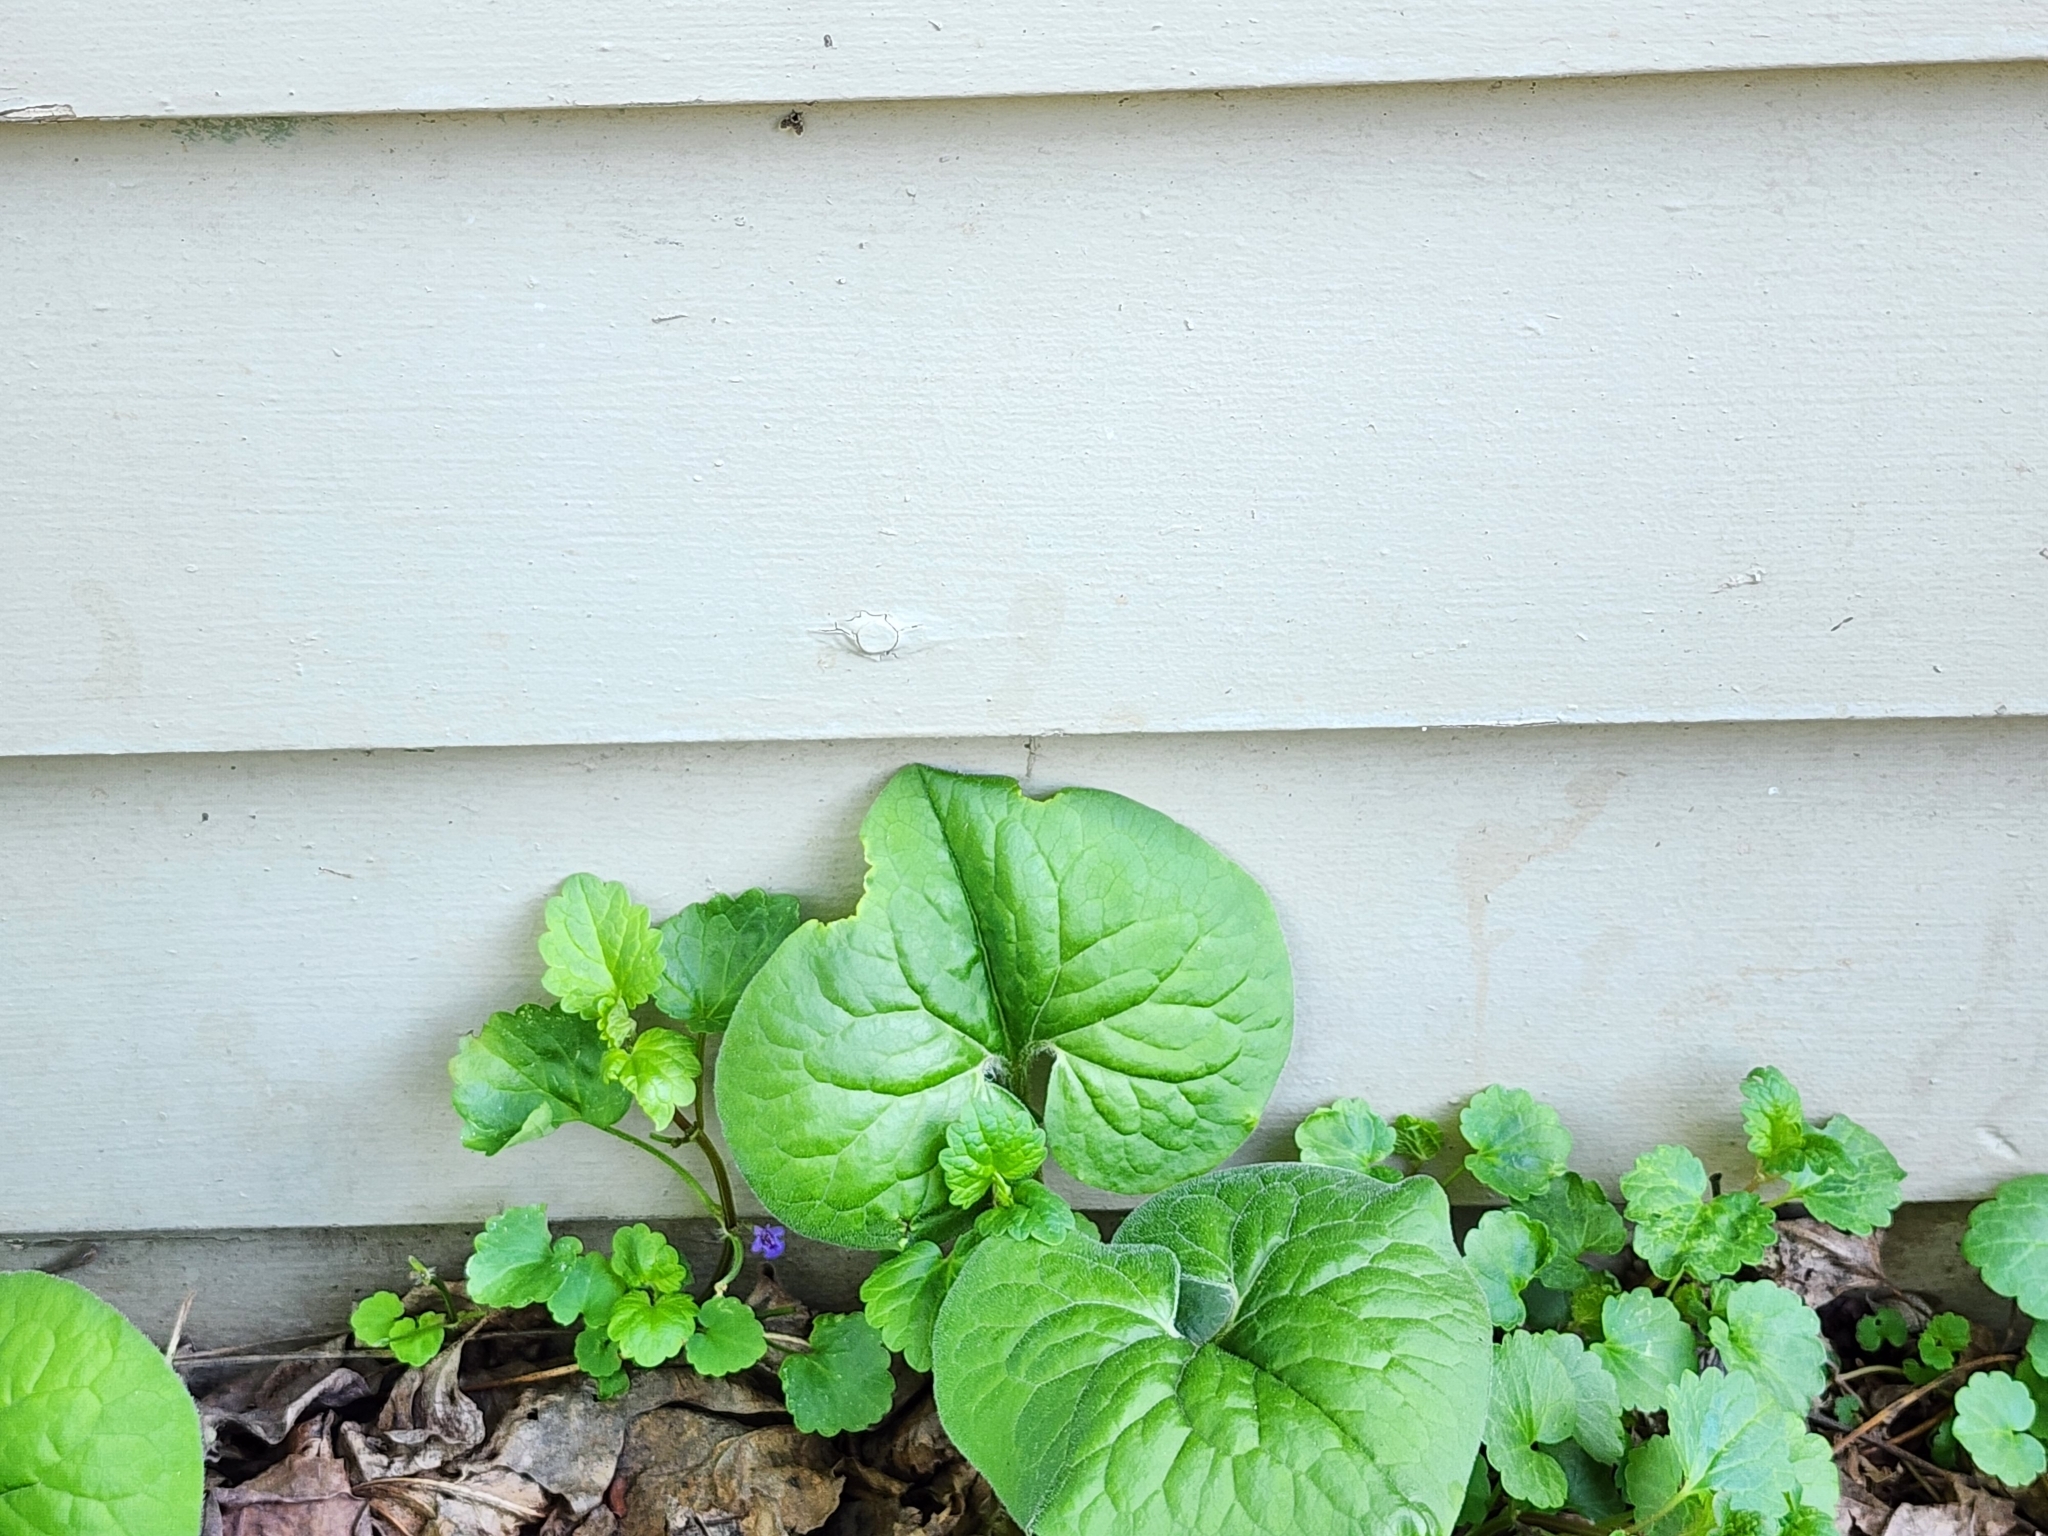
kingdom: Animalia
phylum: Arthropoda
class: Insecta
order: Diptera
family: Psychodidae
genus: Lepiseodina
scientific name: Lepiseodina
